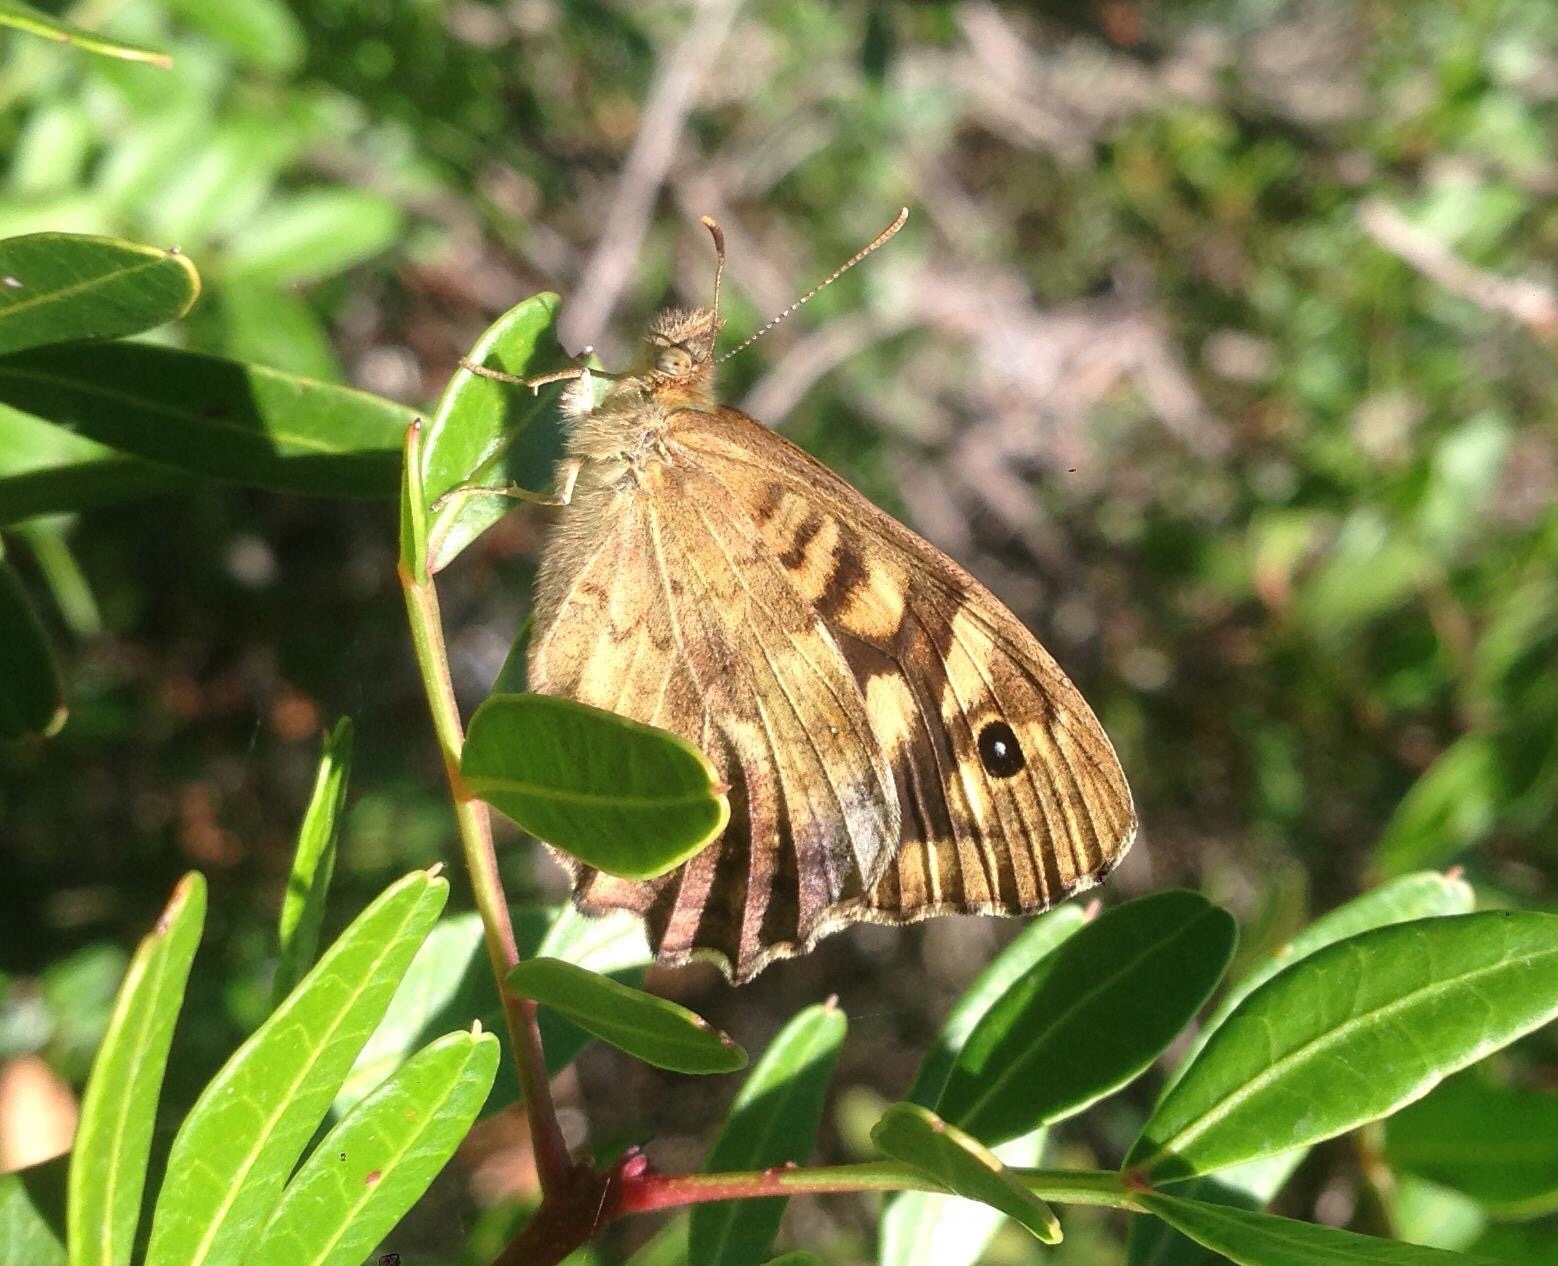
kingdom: Animalia
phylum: Arthropoda
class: Insecta
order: Lepidoptera
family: Nymphalidae
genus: Pararge
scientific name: Pararge aegeria
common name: Speckled wood
